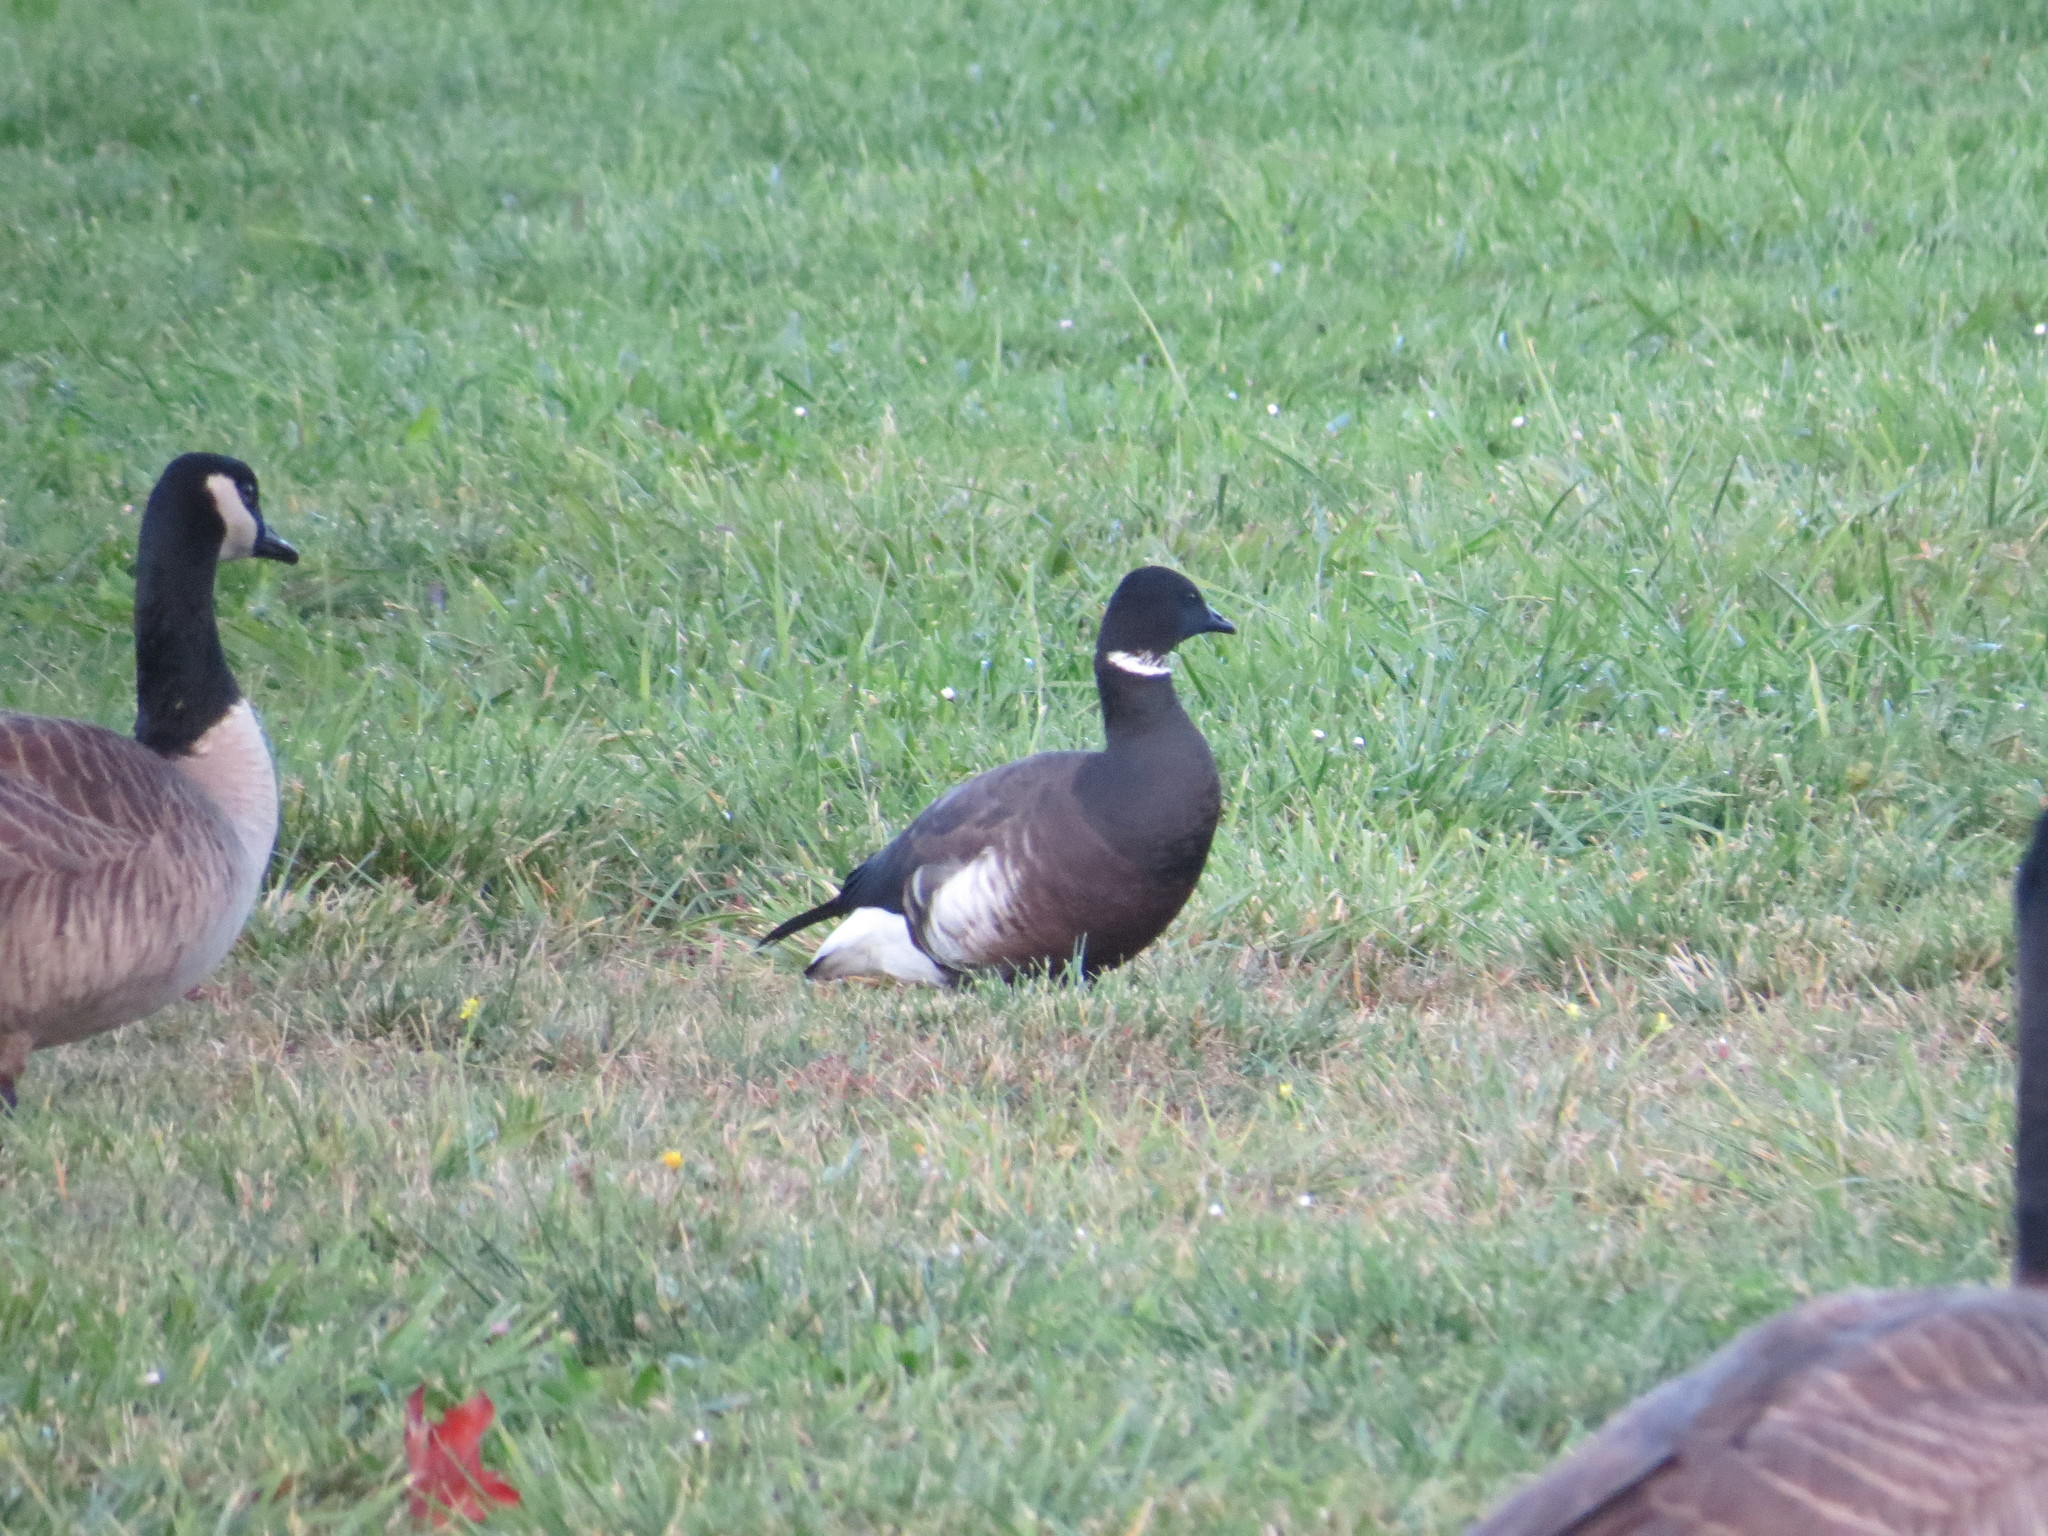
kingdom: Animalia
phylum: Chordata
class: Aves
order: Anseriformes
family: Anatidae
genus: Branta
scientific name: Branta bernicla
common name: Brant goose
